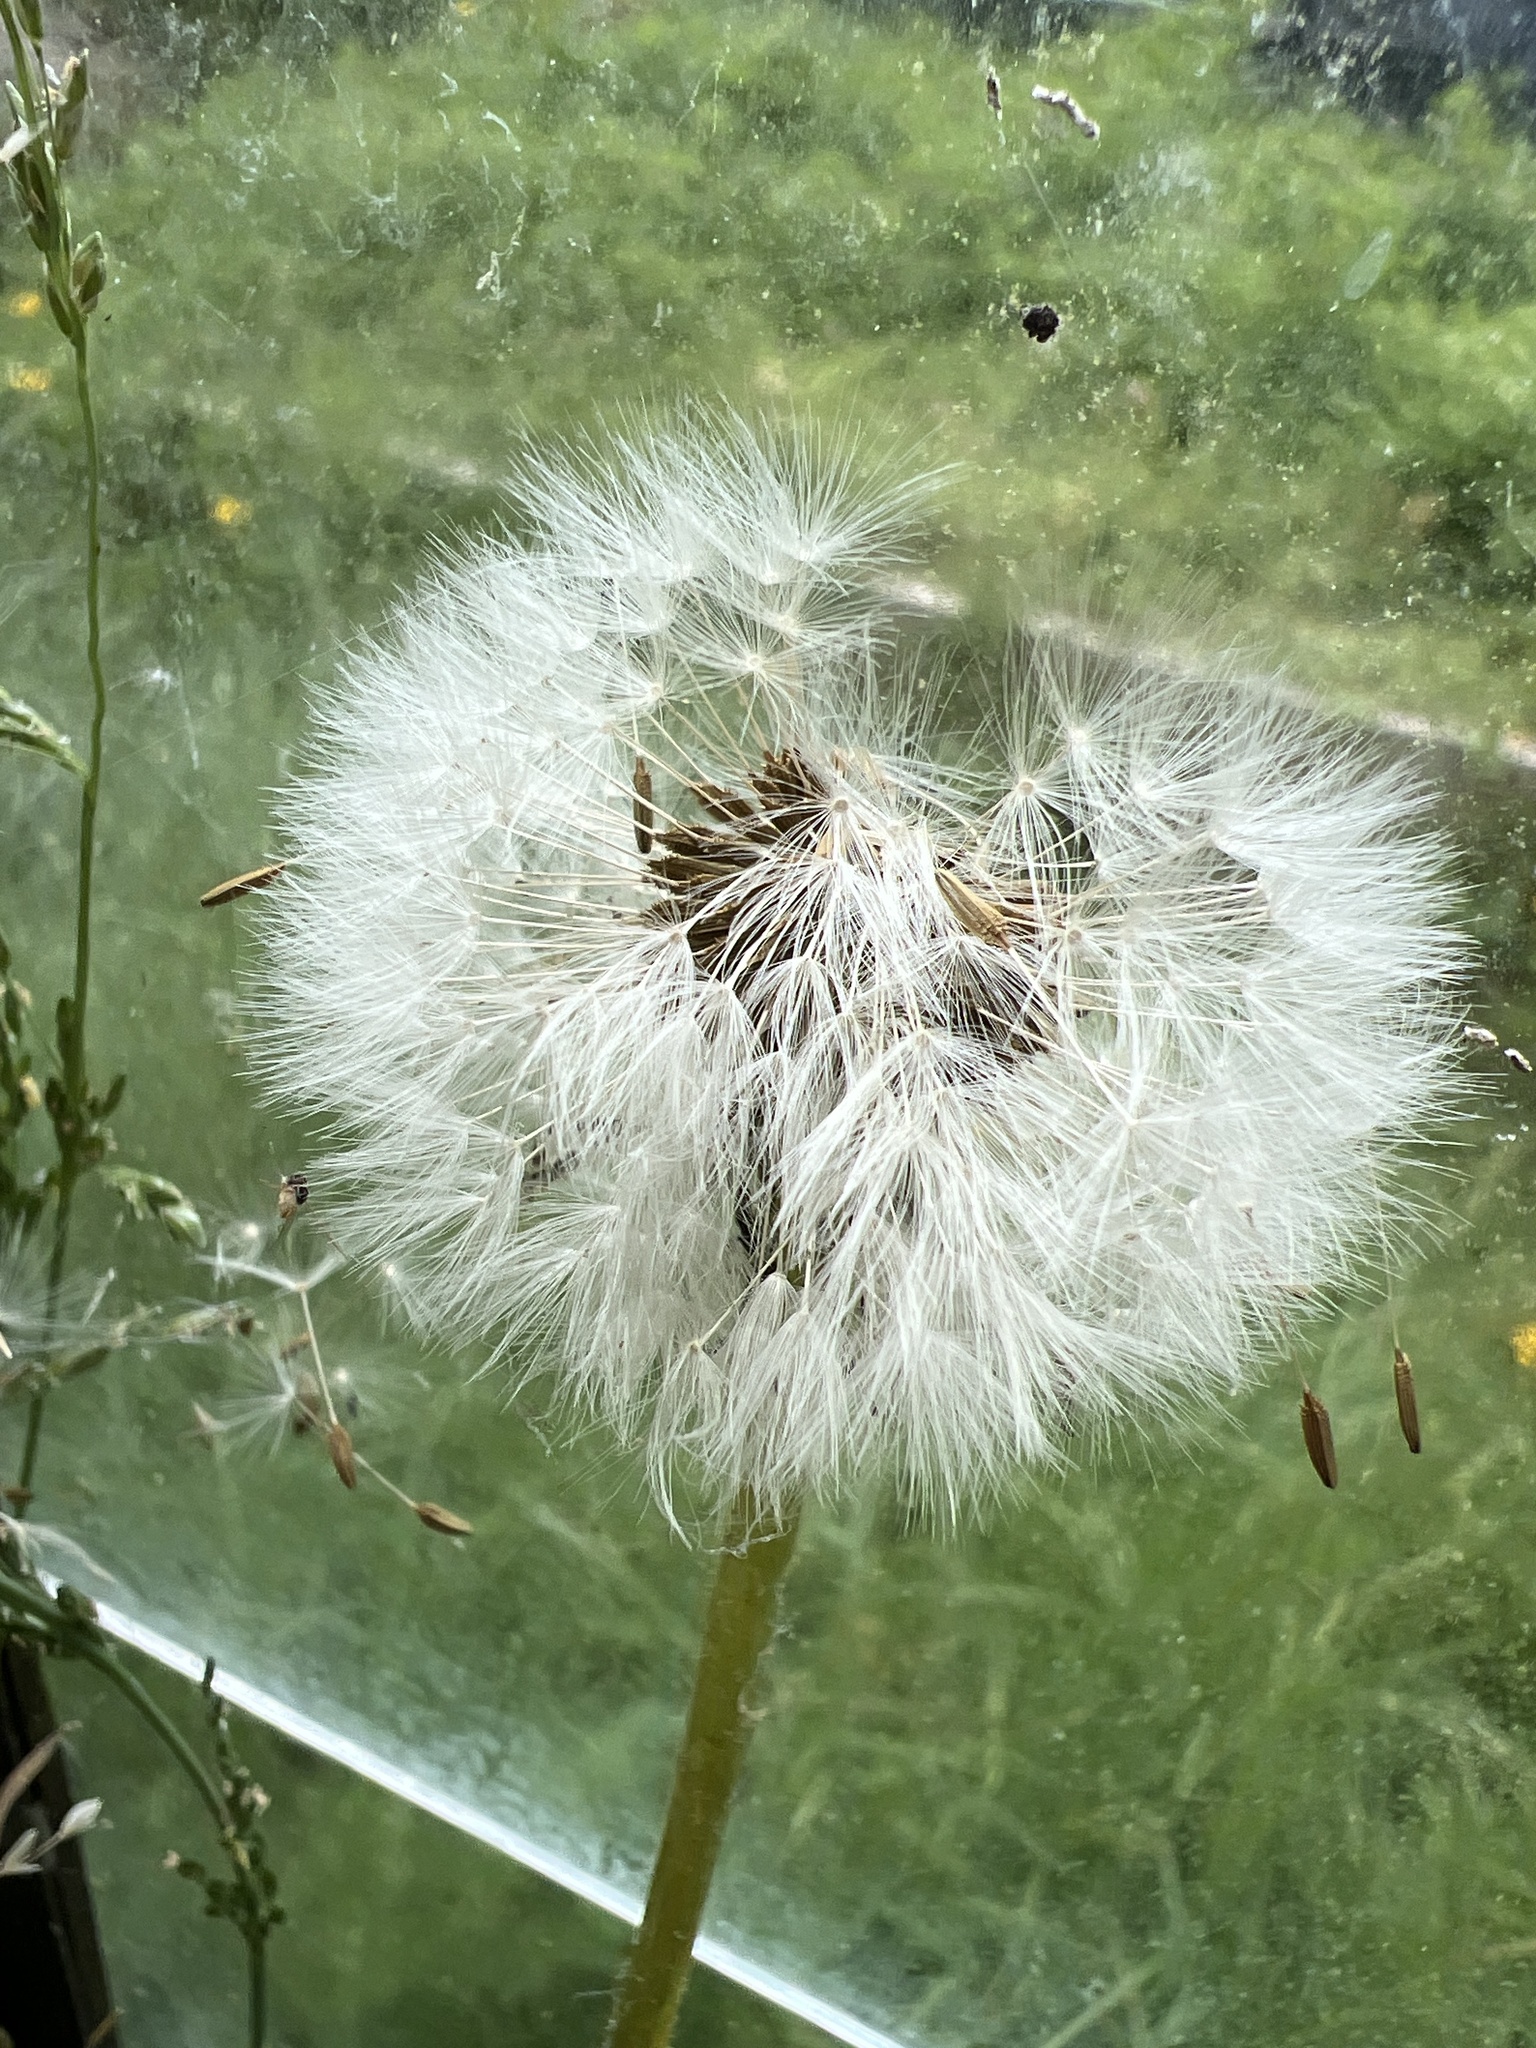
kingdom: Plantae
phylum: Tracheophyta
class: Magnoliopsida
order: Asterales
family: Asteraceae
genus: Taraxacum
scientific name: Taraxacum officinale
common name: Common dandelion
